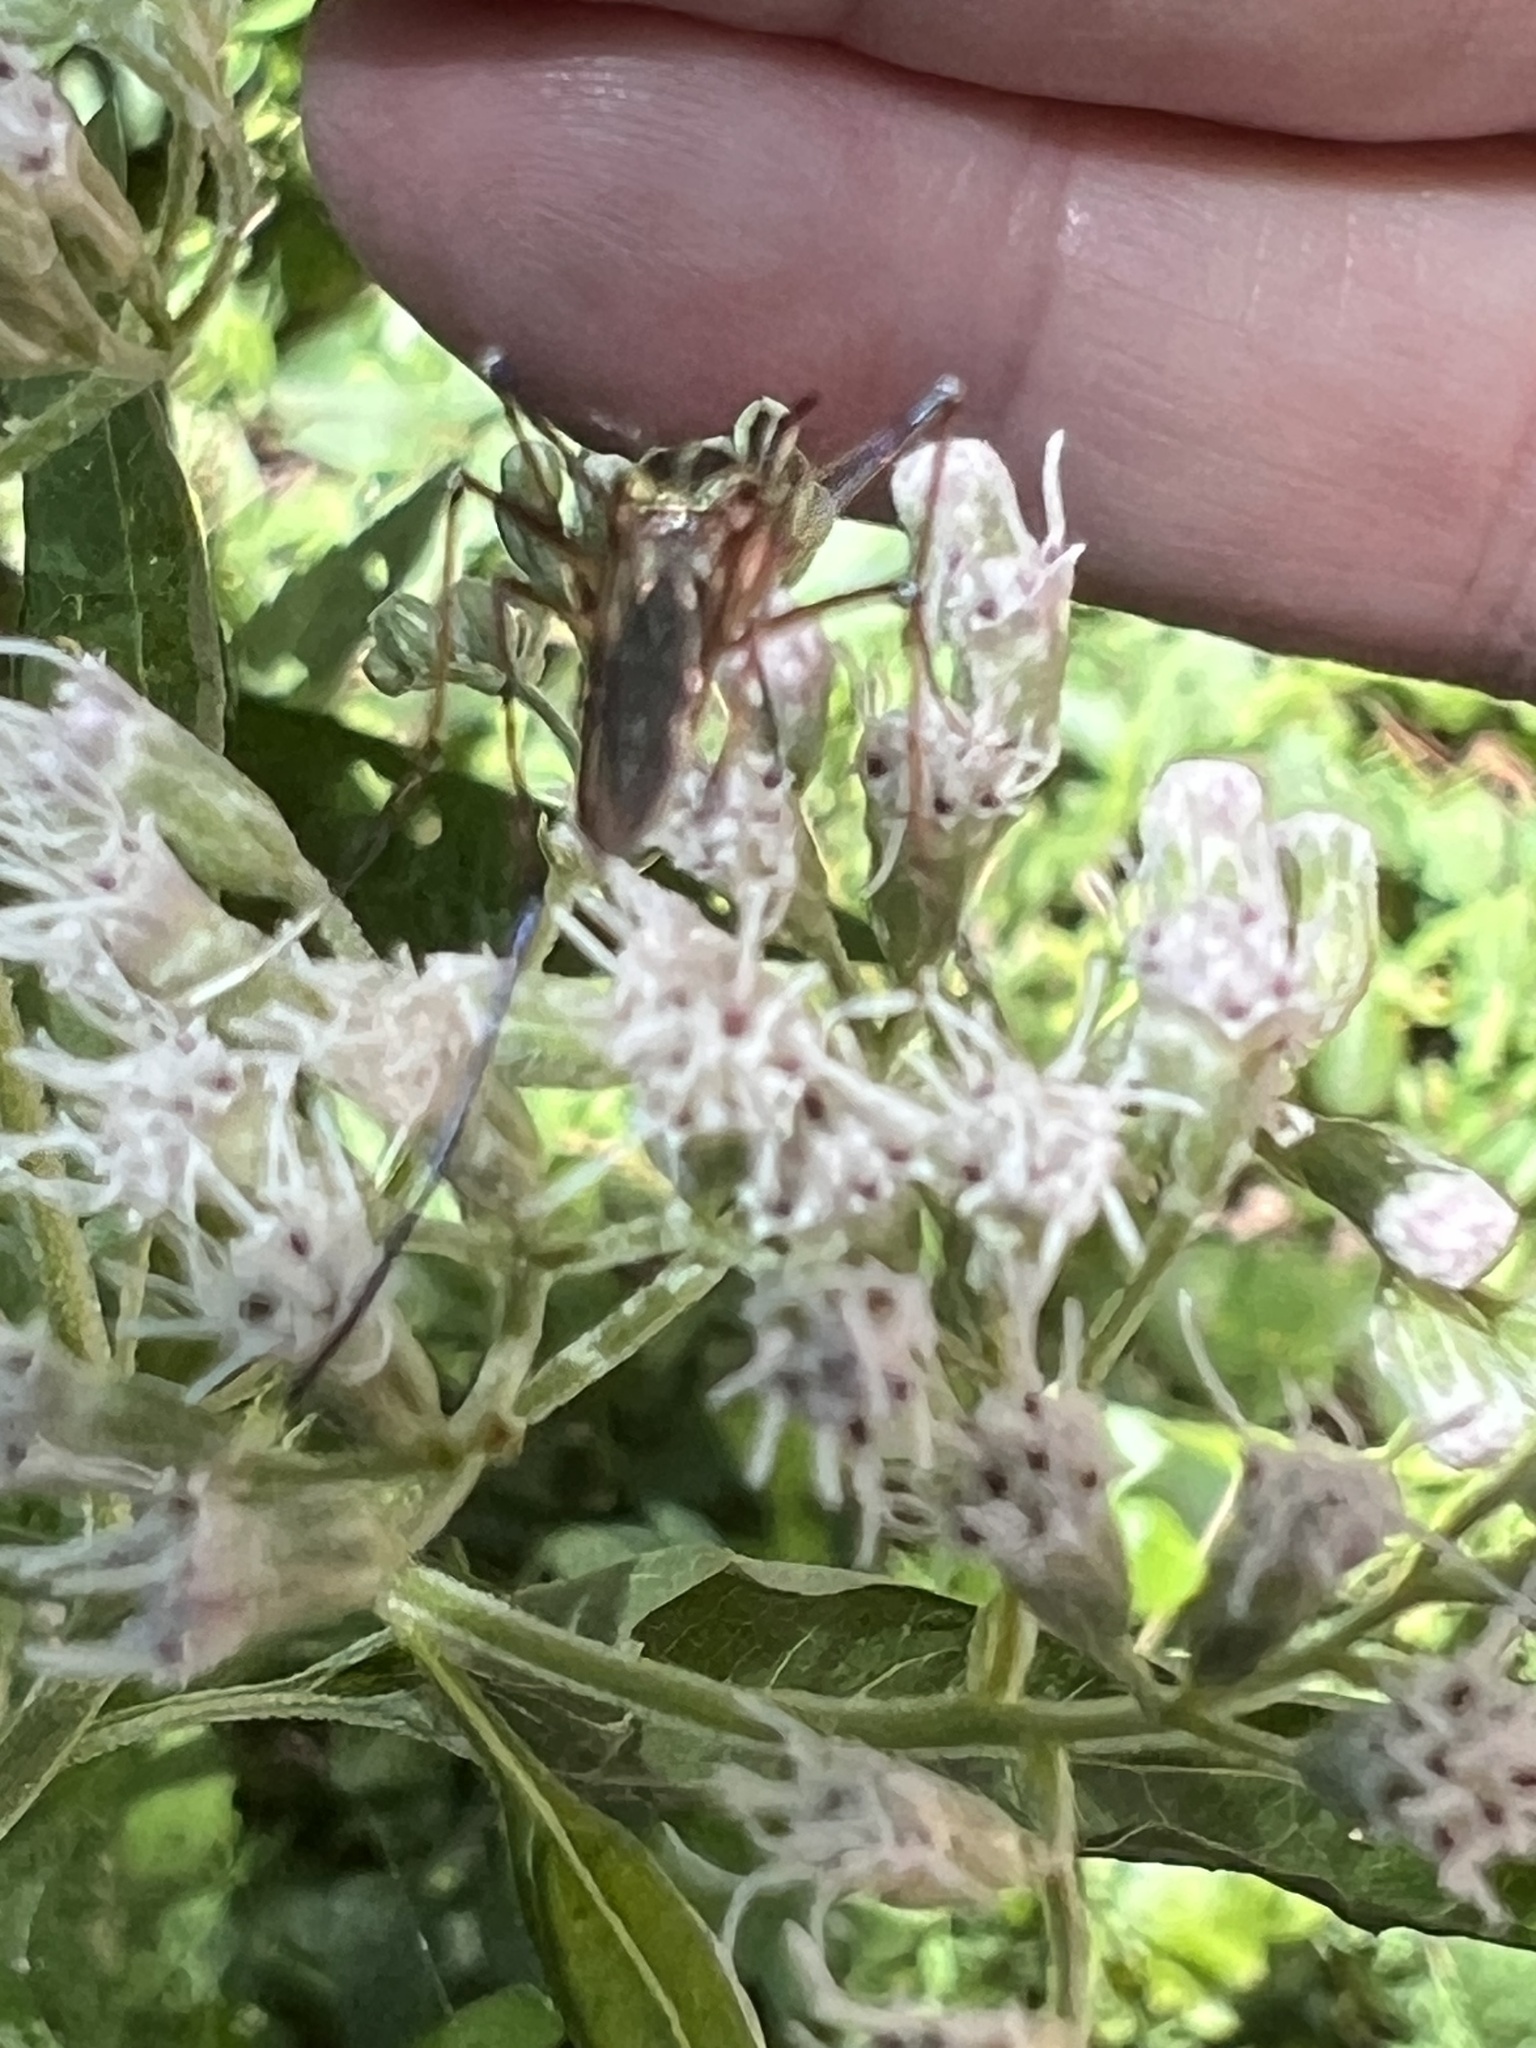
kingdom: Animalia
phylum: Arthropoda
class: Insecta
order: Diptera
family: Culicidae
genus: Toxorhynchites
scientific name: Toxorhynchites rutilus
